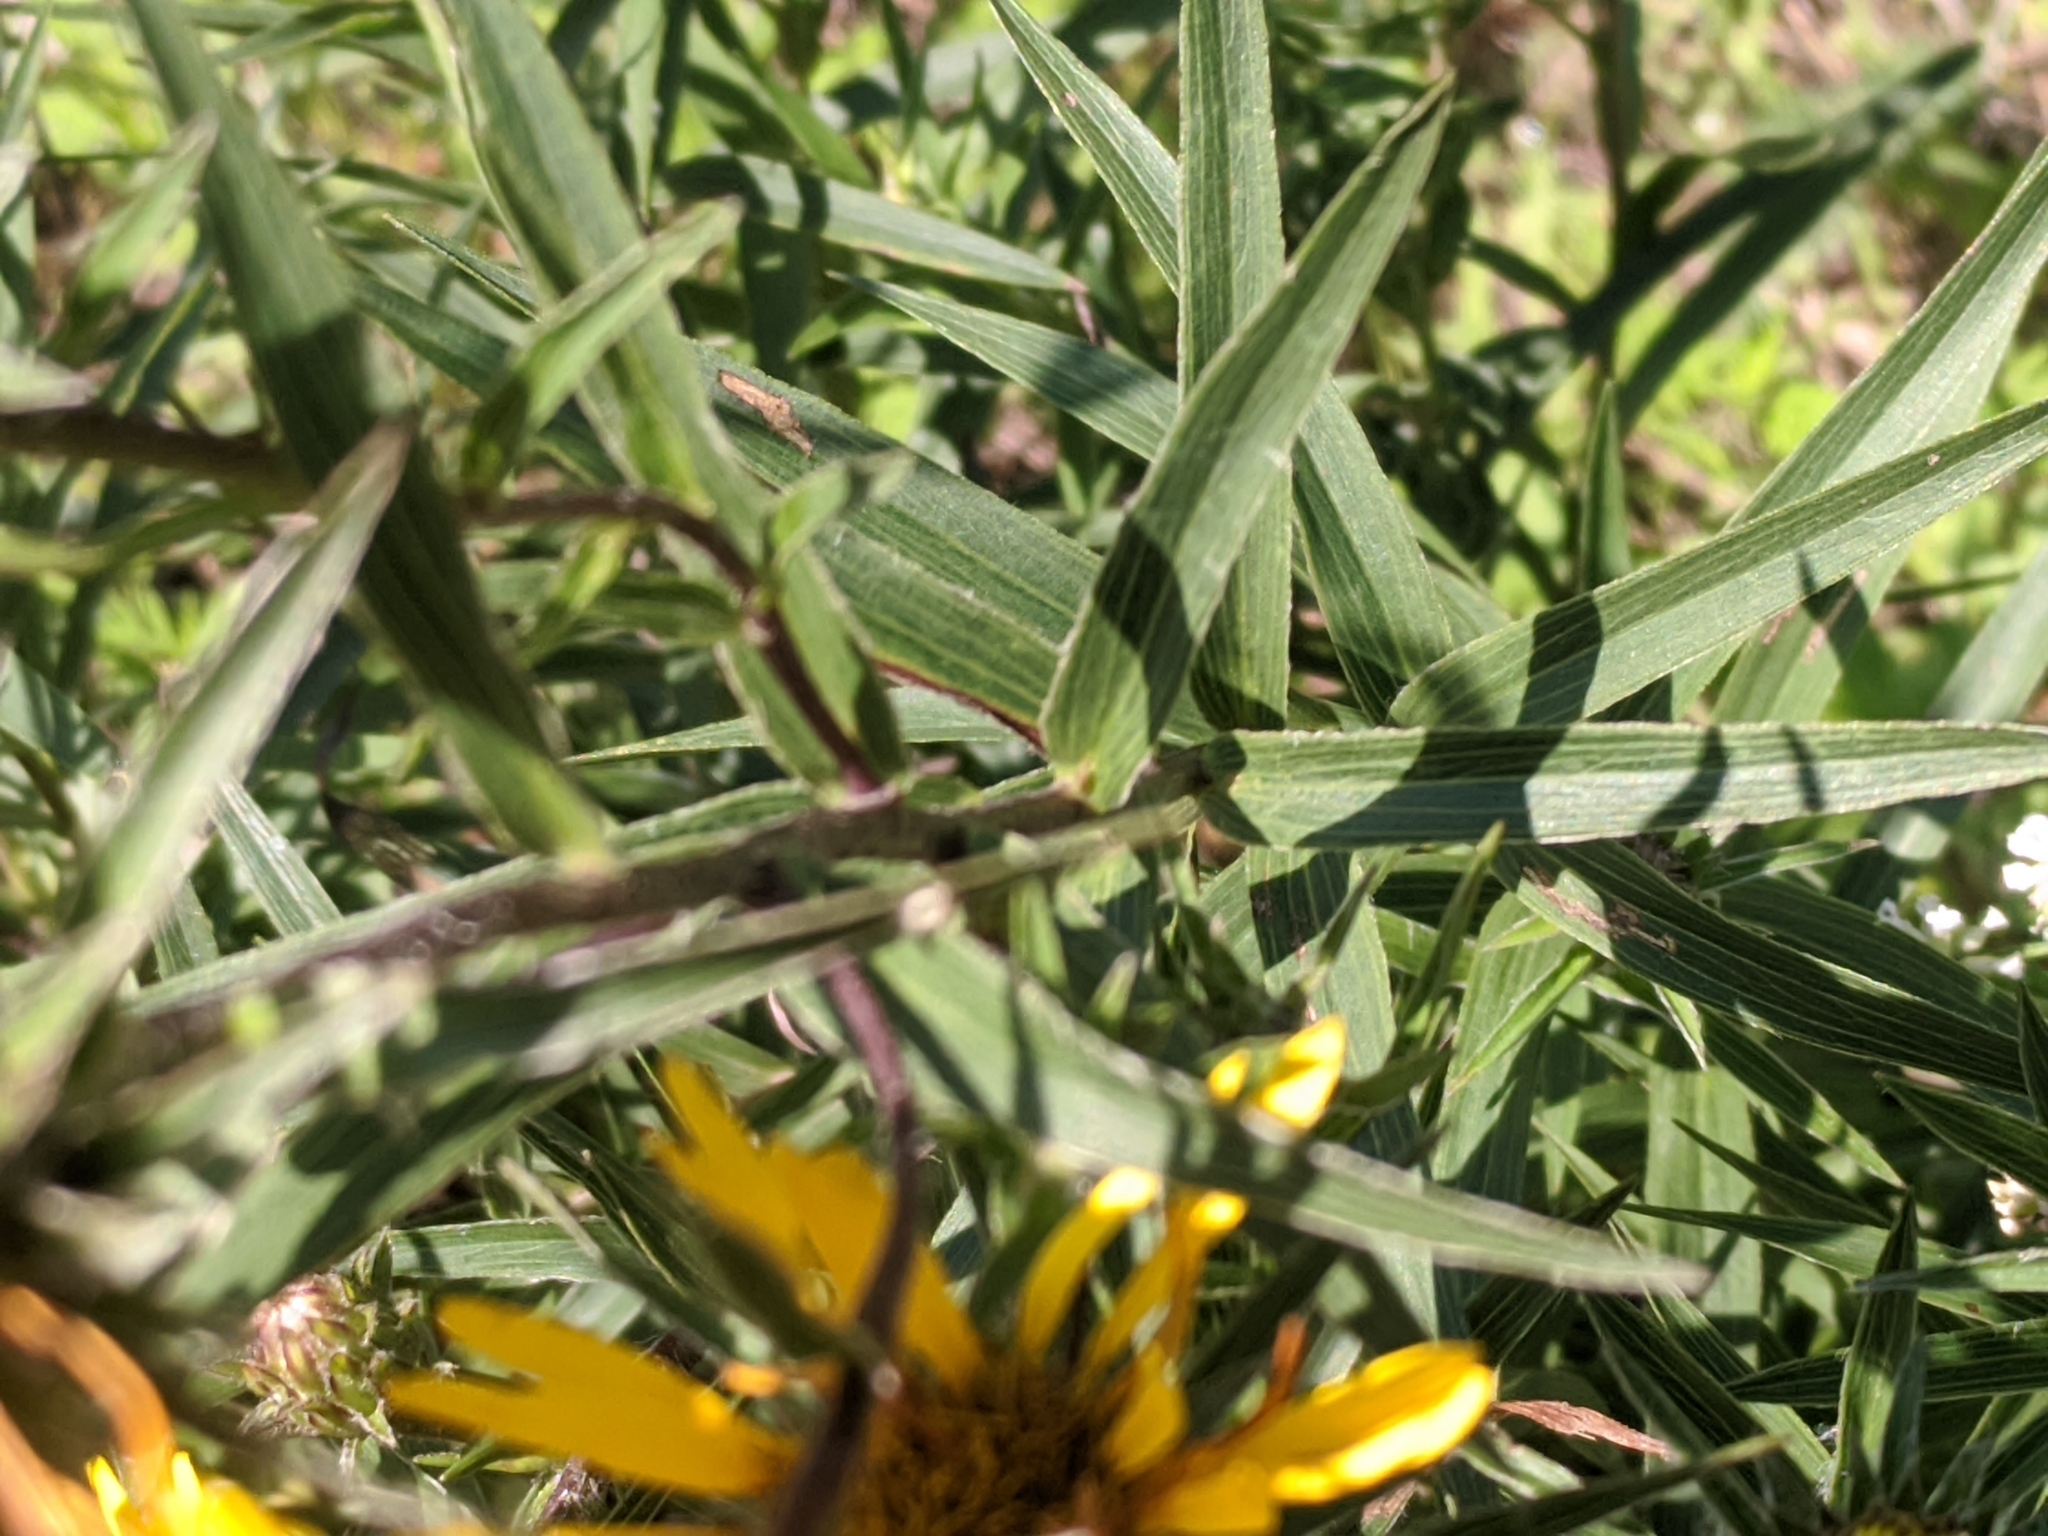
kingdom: Plantae
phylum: Tracheophyta
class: Magnoliopsida
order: Asterales
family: Asteraceae
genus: Pentanema
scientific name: Pentanema ensifolium
